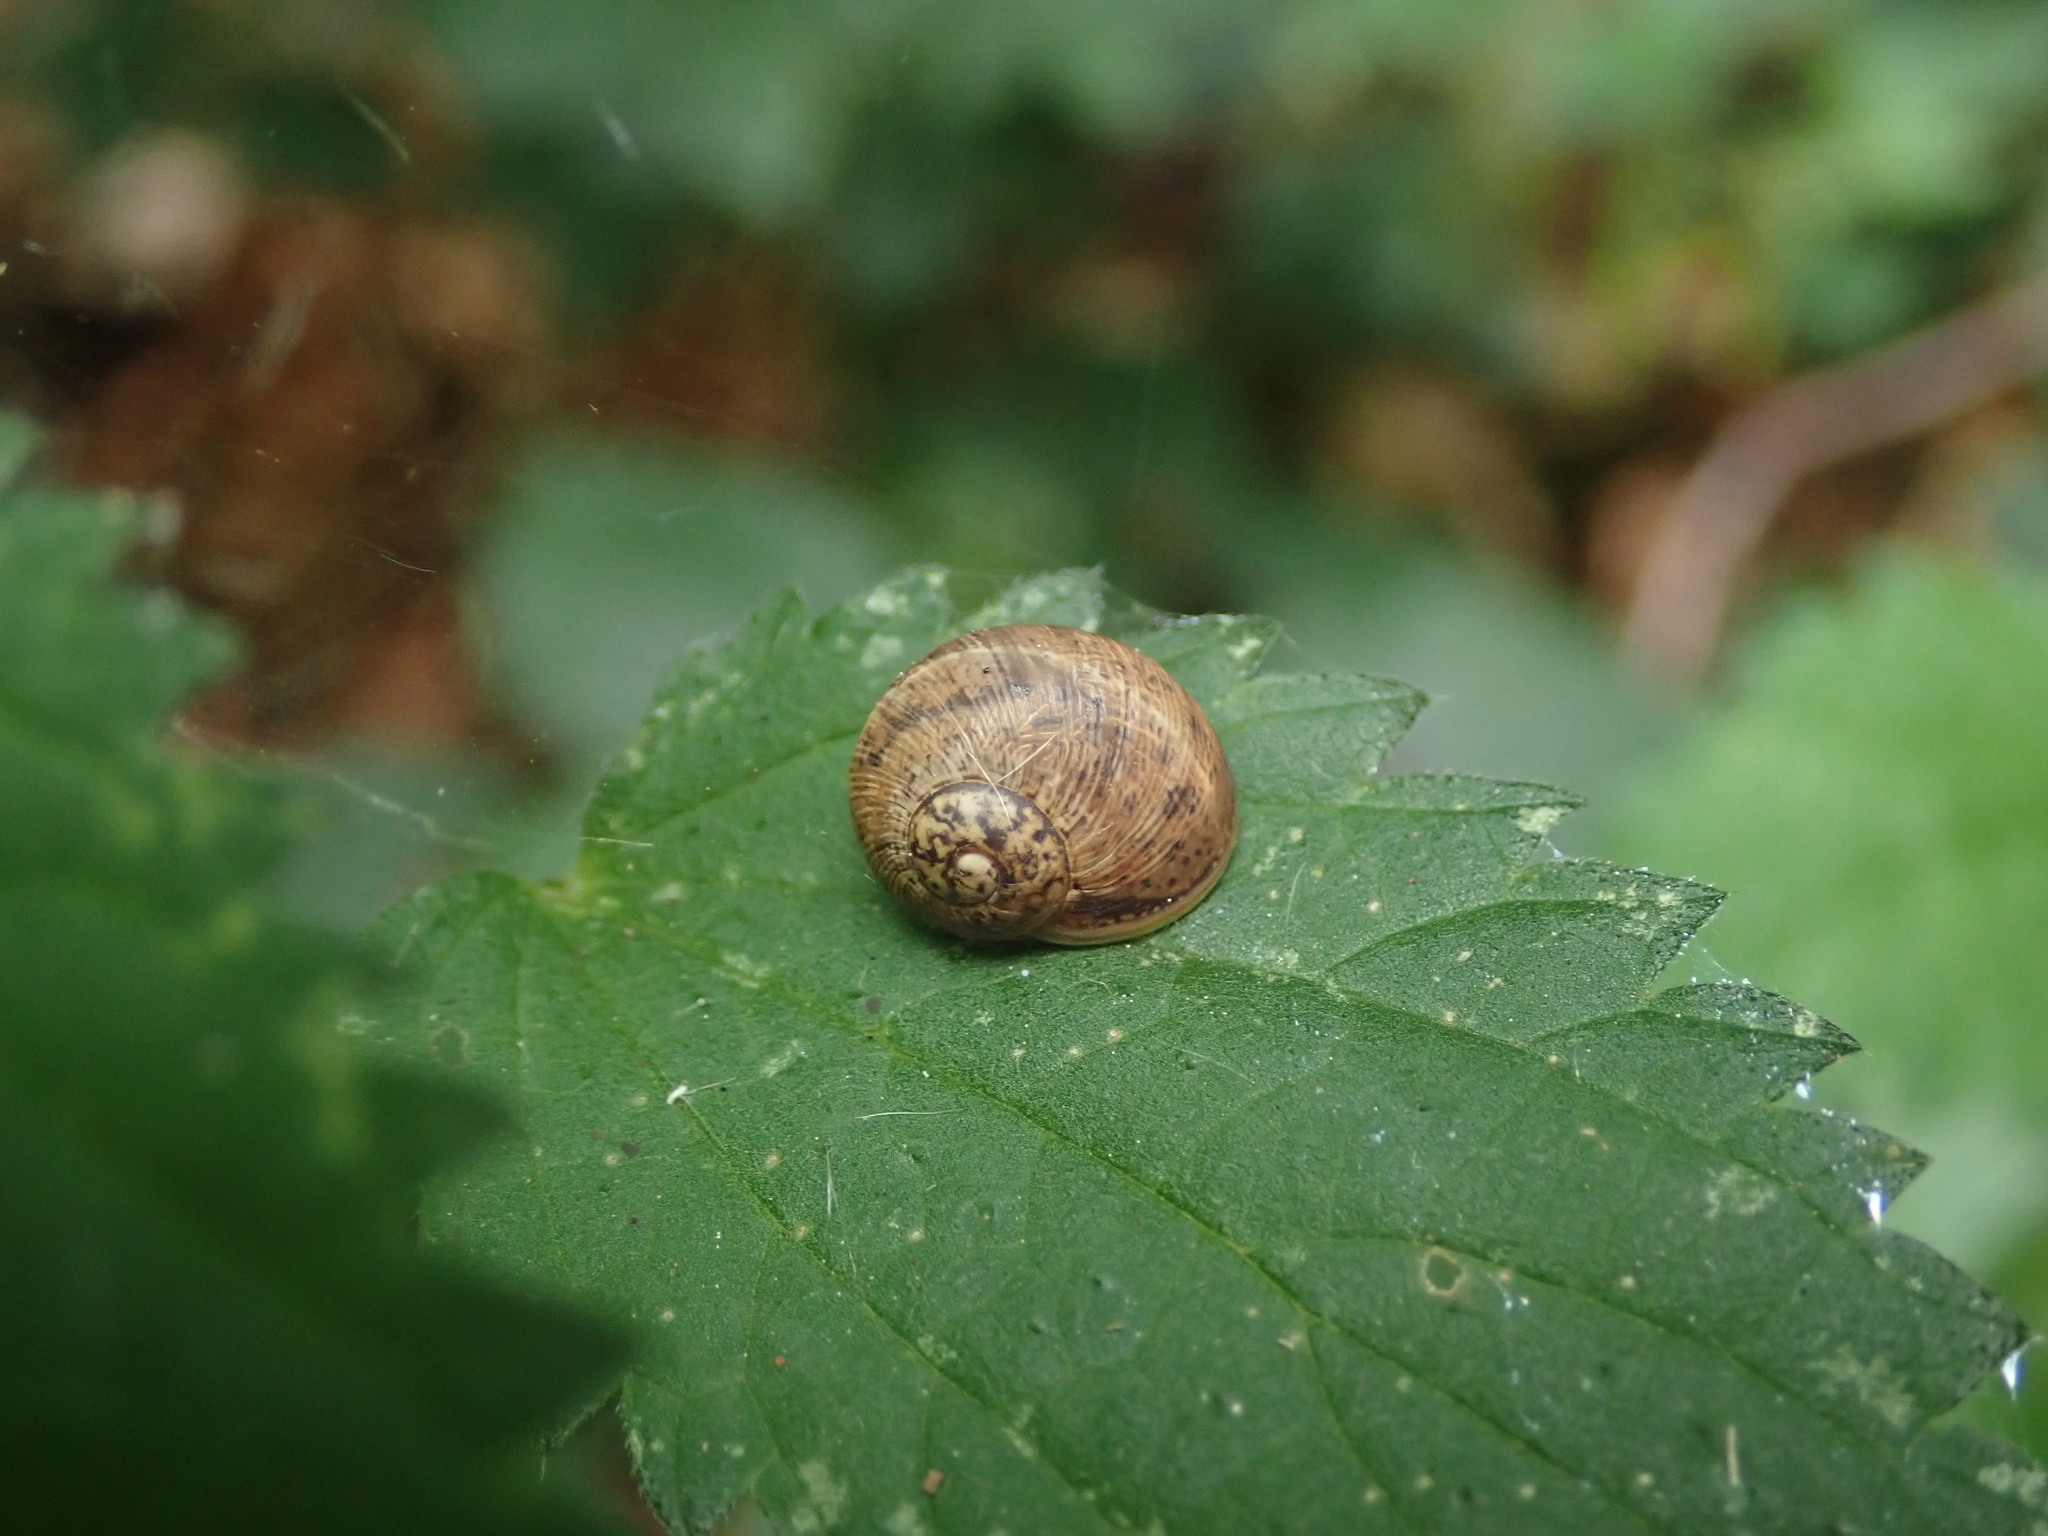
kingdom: Animalia
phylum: Mollusca
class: Gastropoda
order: Stylommatophora
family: Helicidae
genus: Cornu
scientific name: Cornu aspersum
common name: Brown garden snail
